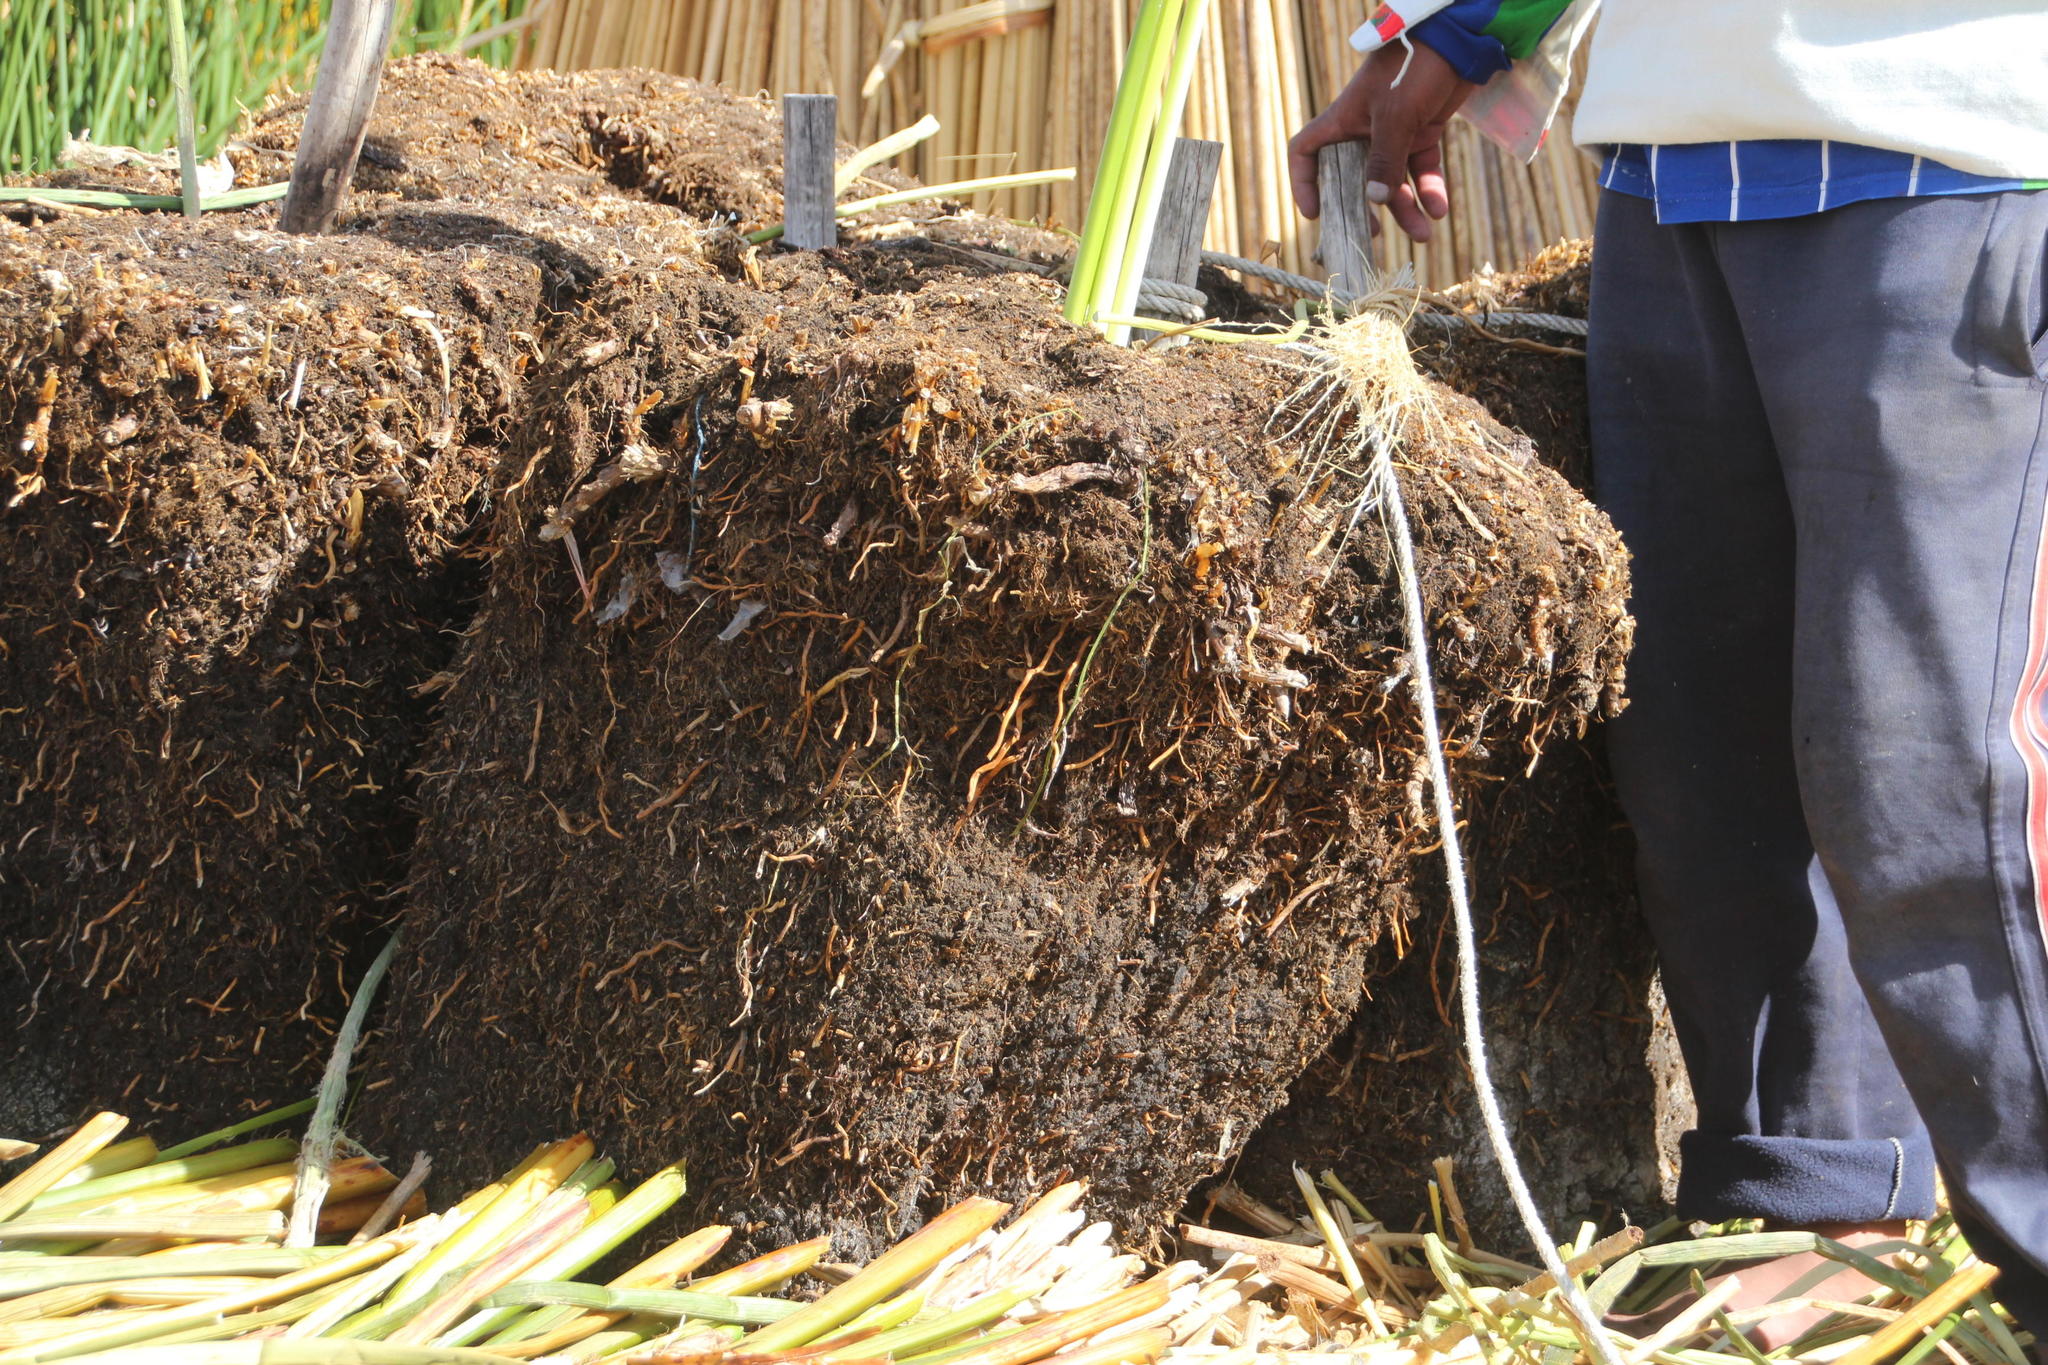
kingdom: Plantae
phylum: Tracheophyta
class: Liliopsida
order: Poales
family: Cyperaceae
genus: Schoenoplectus
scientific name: Schoenoplectus californicus
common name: California bulrush
